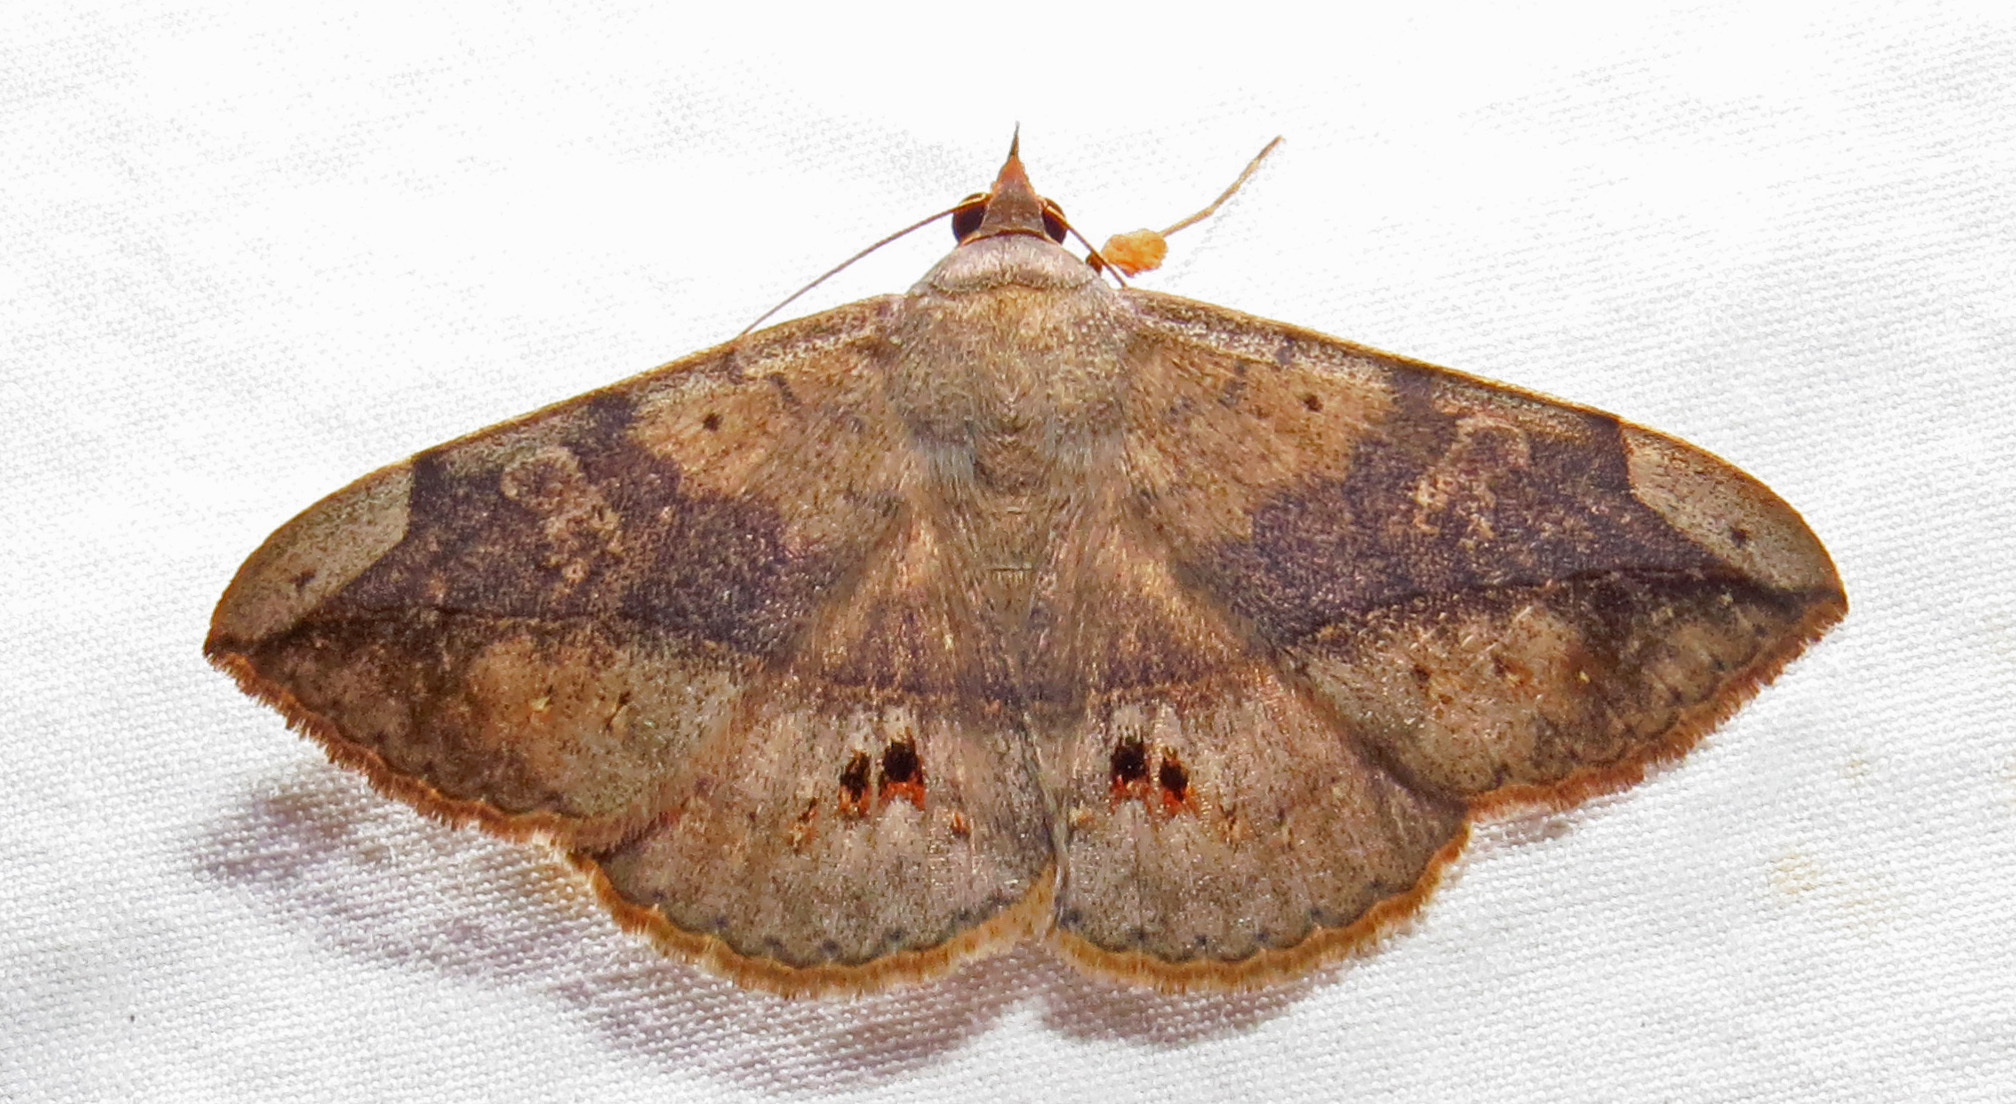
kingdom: Animalia
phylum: Arthropoda
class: Insecta
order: Lepidoptera
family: Erebidae
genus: Anticarsia
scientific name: Anticarsia gemmatalis
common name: Cutworm moth
